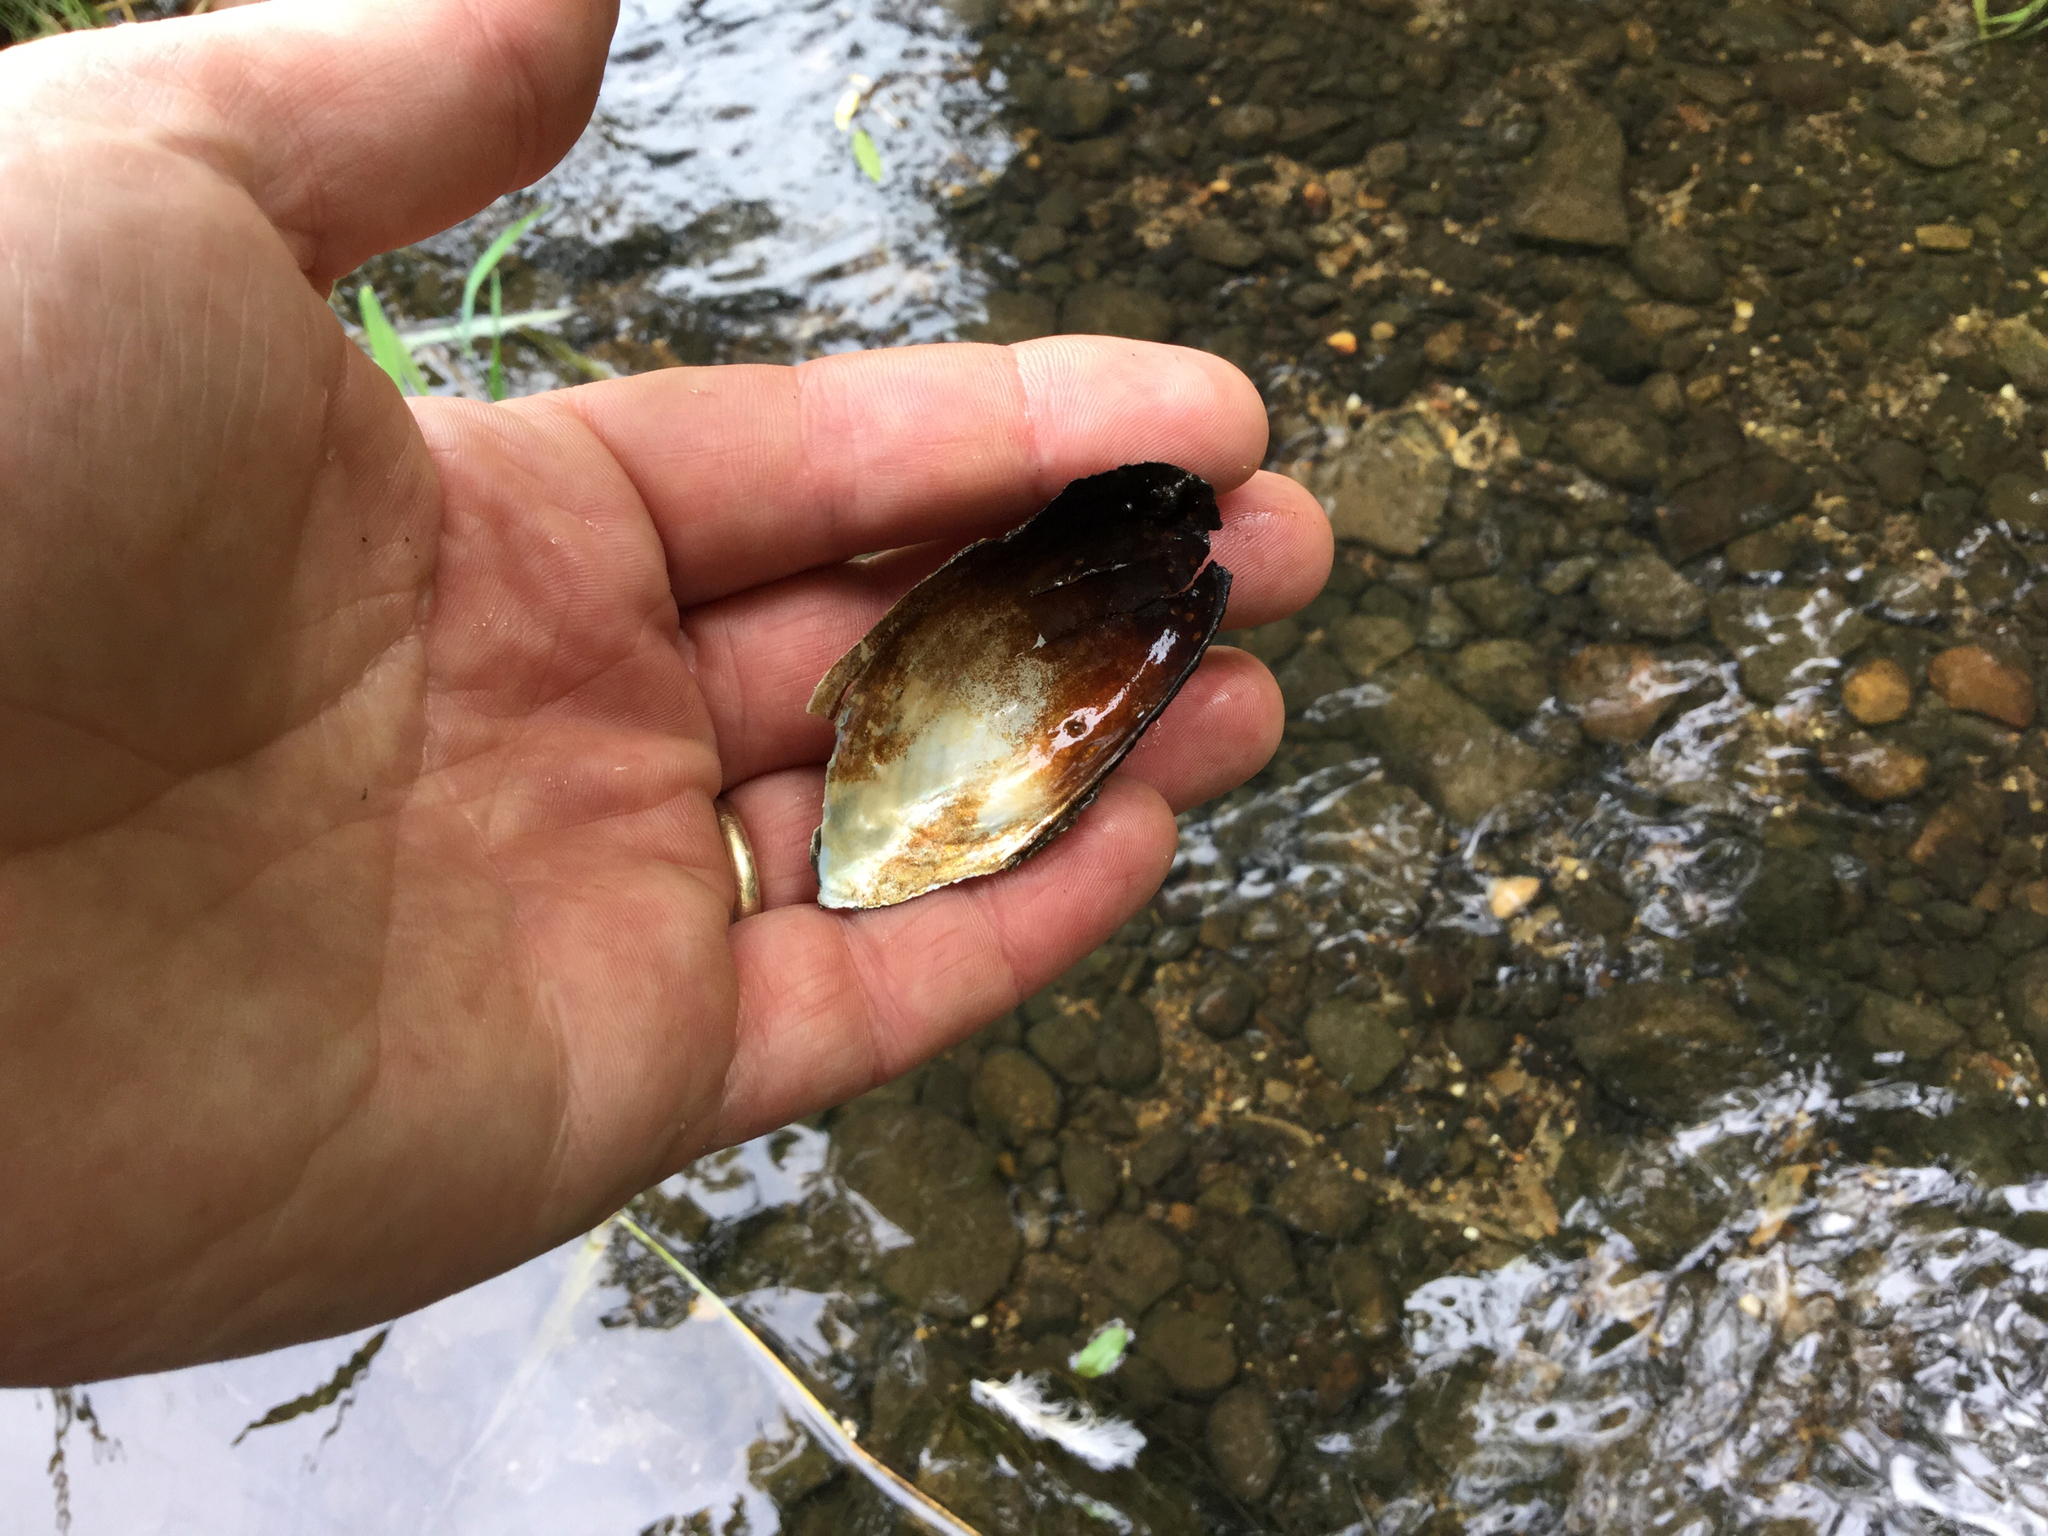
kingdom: Animalia
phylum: Mollusca
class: Bivalvia
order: Unionida
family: Unionidae
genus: Utterbackia
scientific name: Utterbackia imbecillis
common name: Paper pondshell
